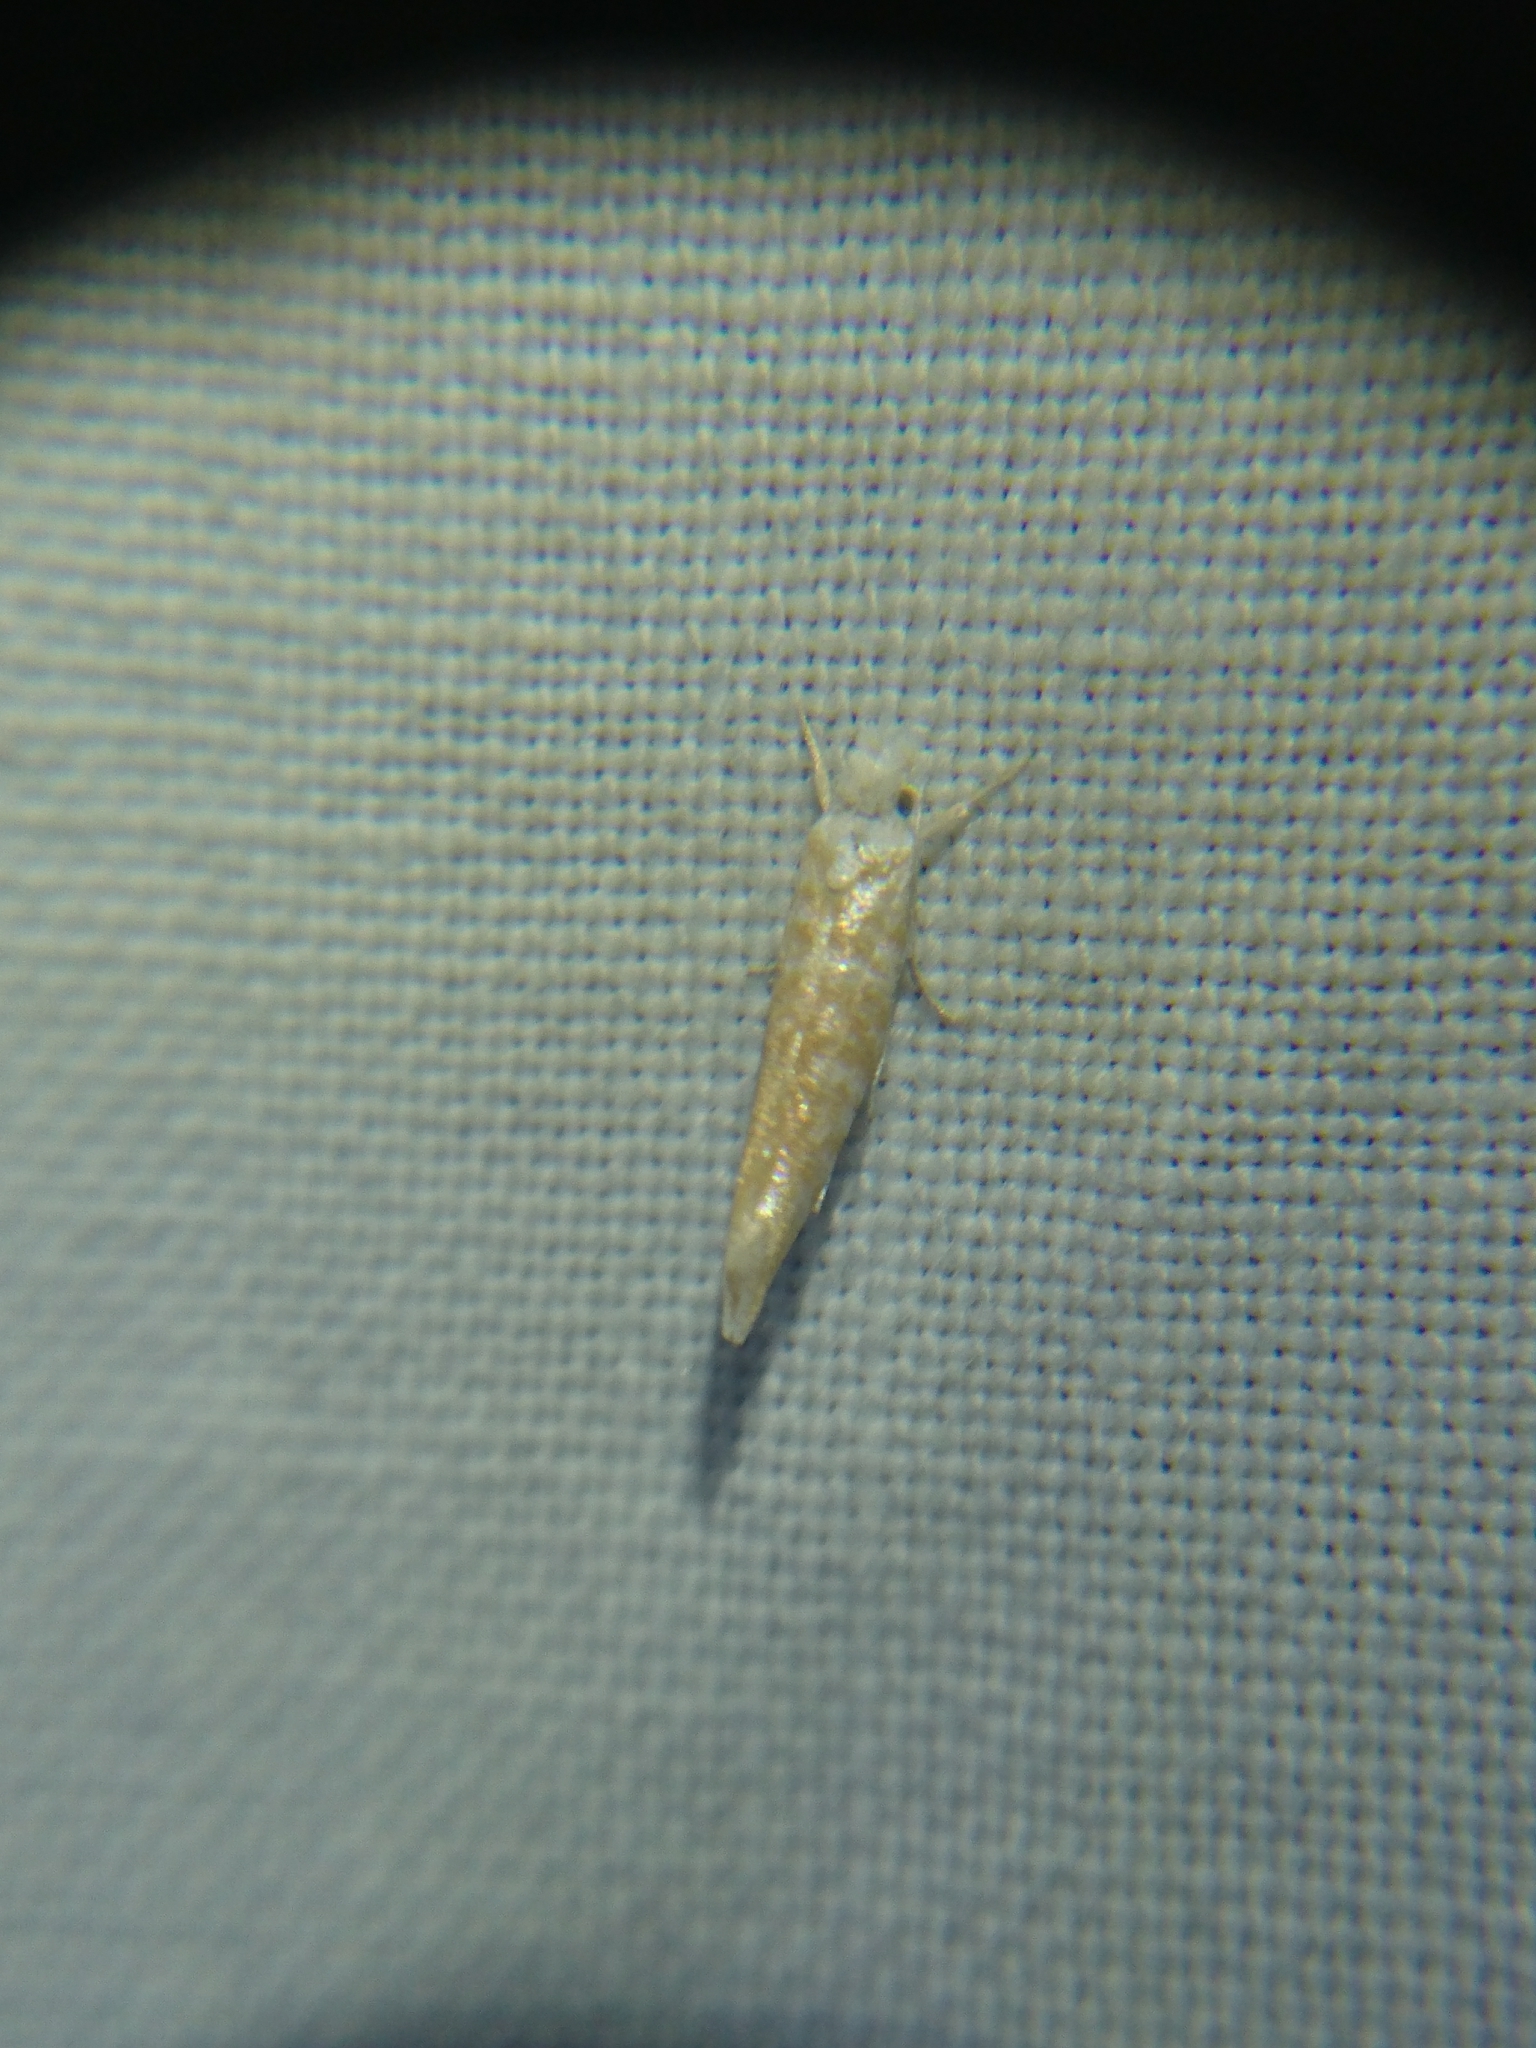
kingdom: Animalia
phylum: Arthropoda
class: Insecta
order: Lepidoptera
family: Yponomeutidae
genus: Zelleria
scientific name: Zelleria retiniella
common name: Brindled zelleria
